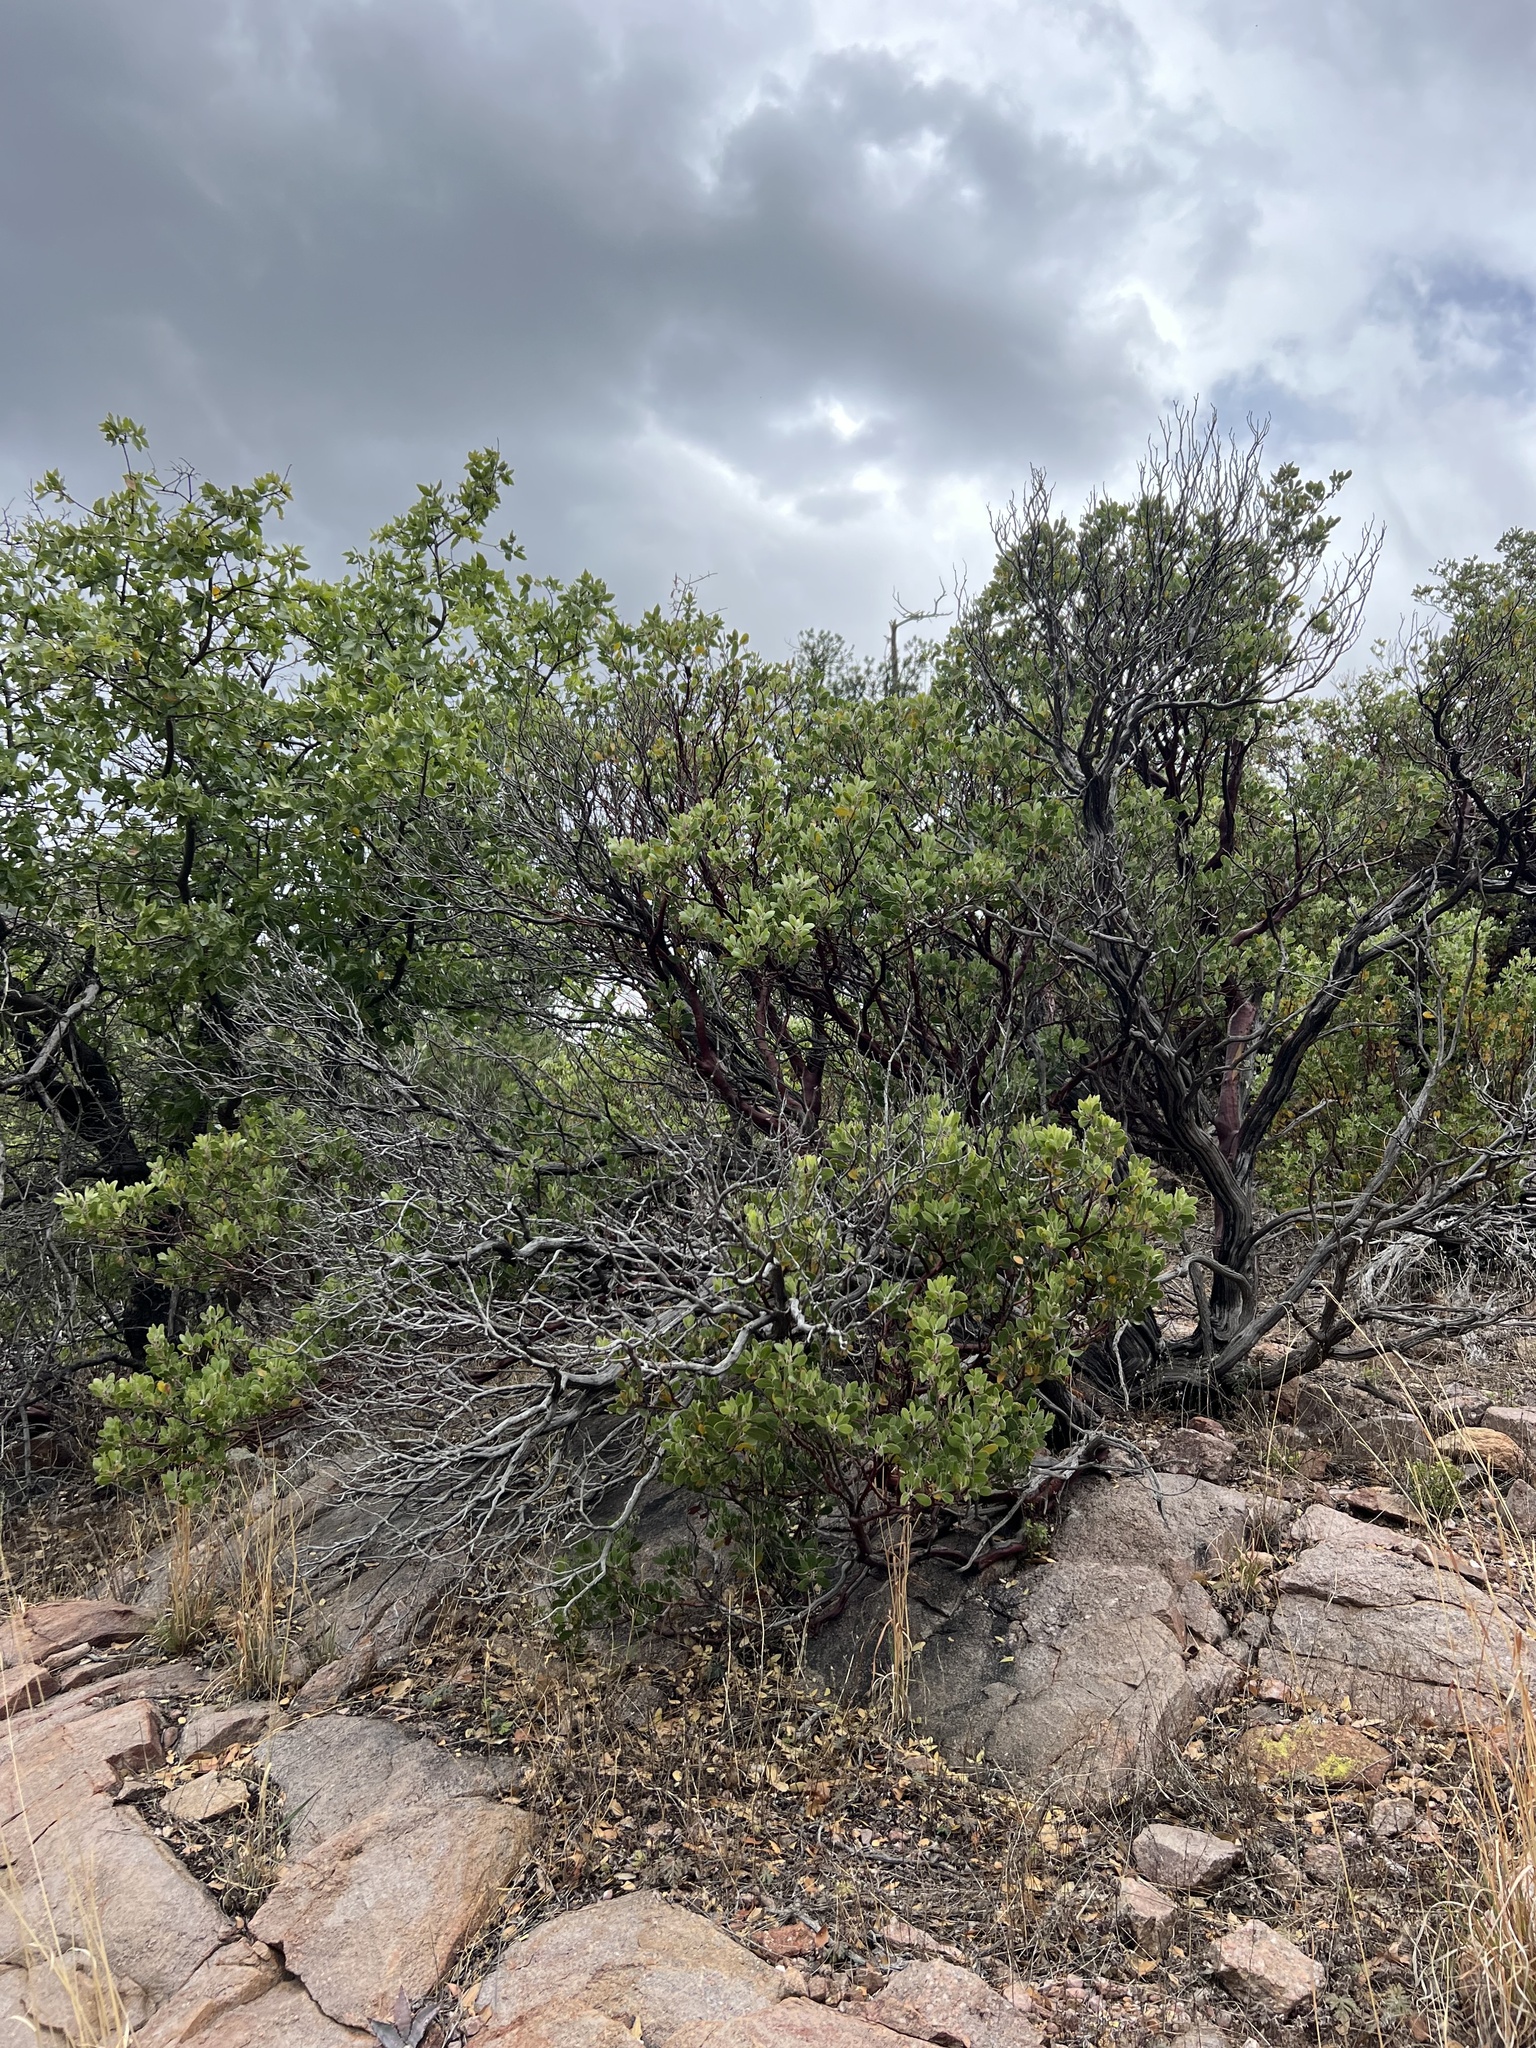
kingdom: Plantae
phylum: Tracheophyta
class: Magnoliopsida
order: Ericales
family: Ericaceae
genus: Arctostaphylos
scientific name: Arctostaphylos pungens
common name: Mexican manzanita
